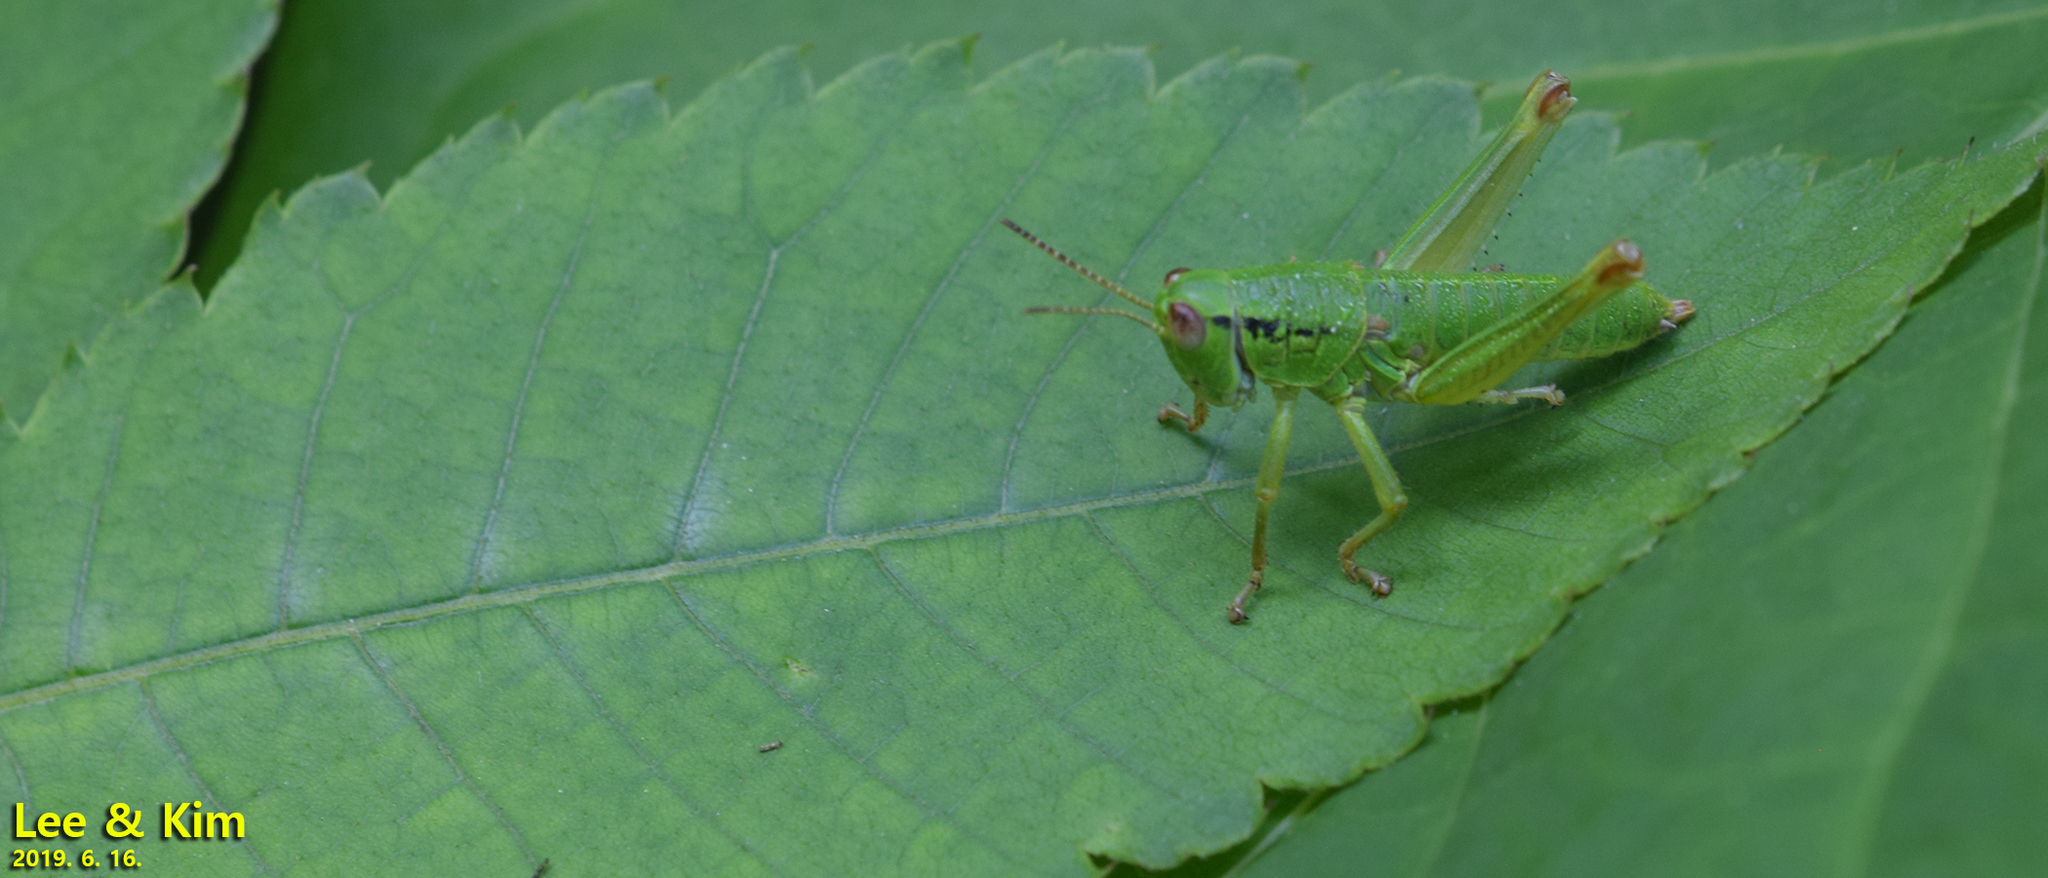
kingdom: Animalia
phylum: Arthropoda
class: Insecta
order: Orthoptera
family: Acrididae
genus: Anapodisma
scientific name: Anapodisma miramae
